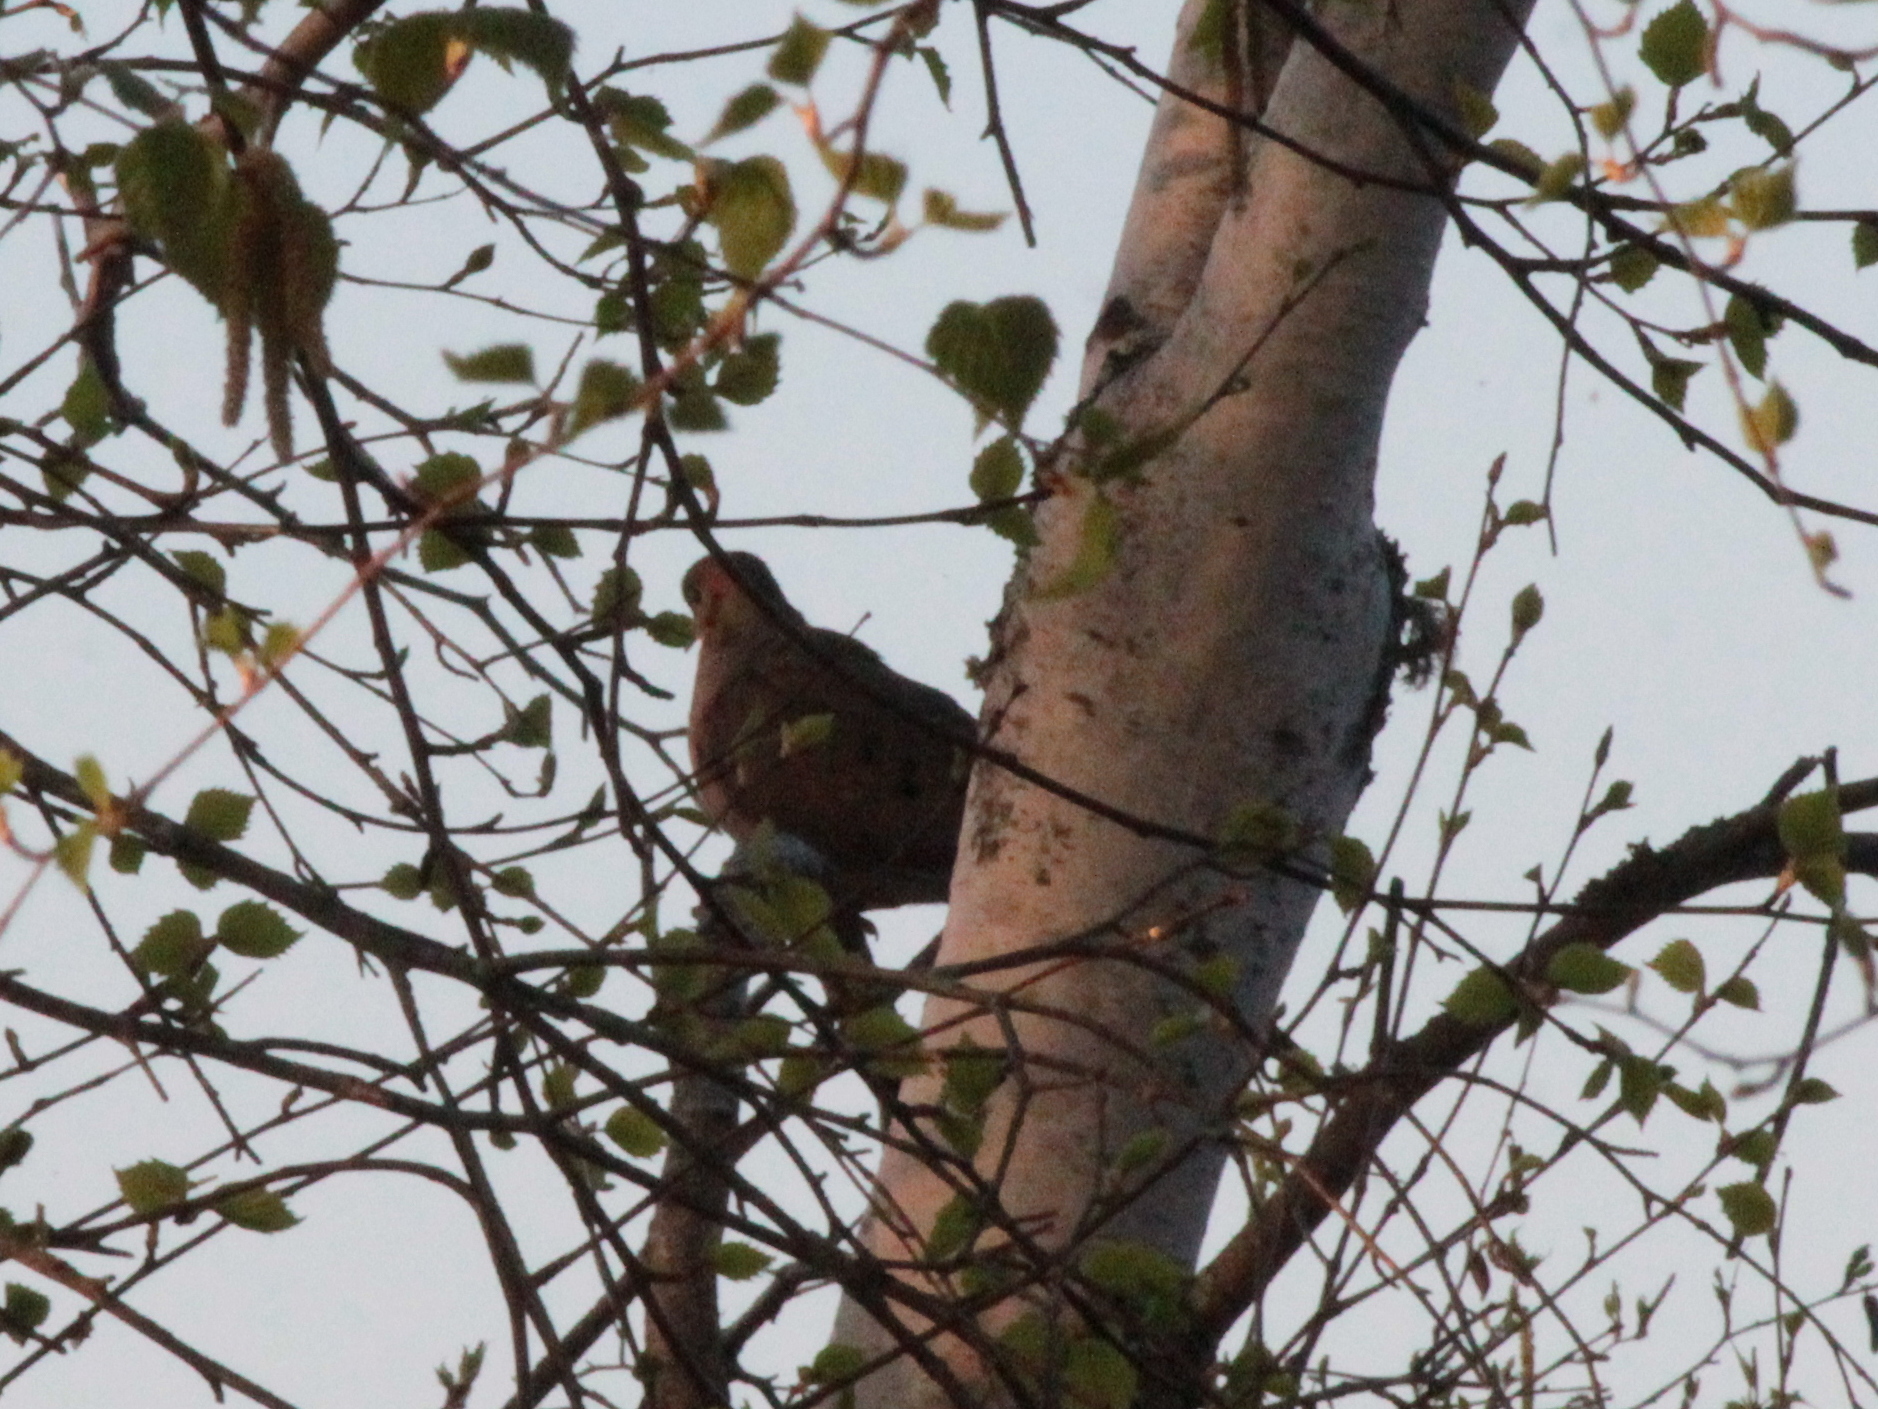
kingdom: Animalia
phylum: Chordata
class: Aves
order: Columbiformes
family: Columbidae
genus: Zenaida
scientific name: Zenaida macroura
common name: Mourning dove
